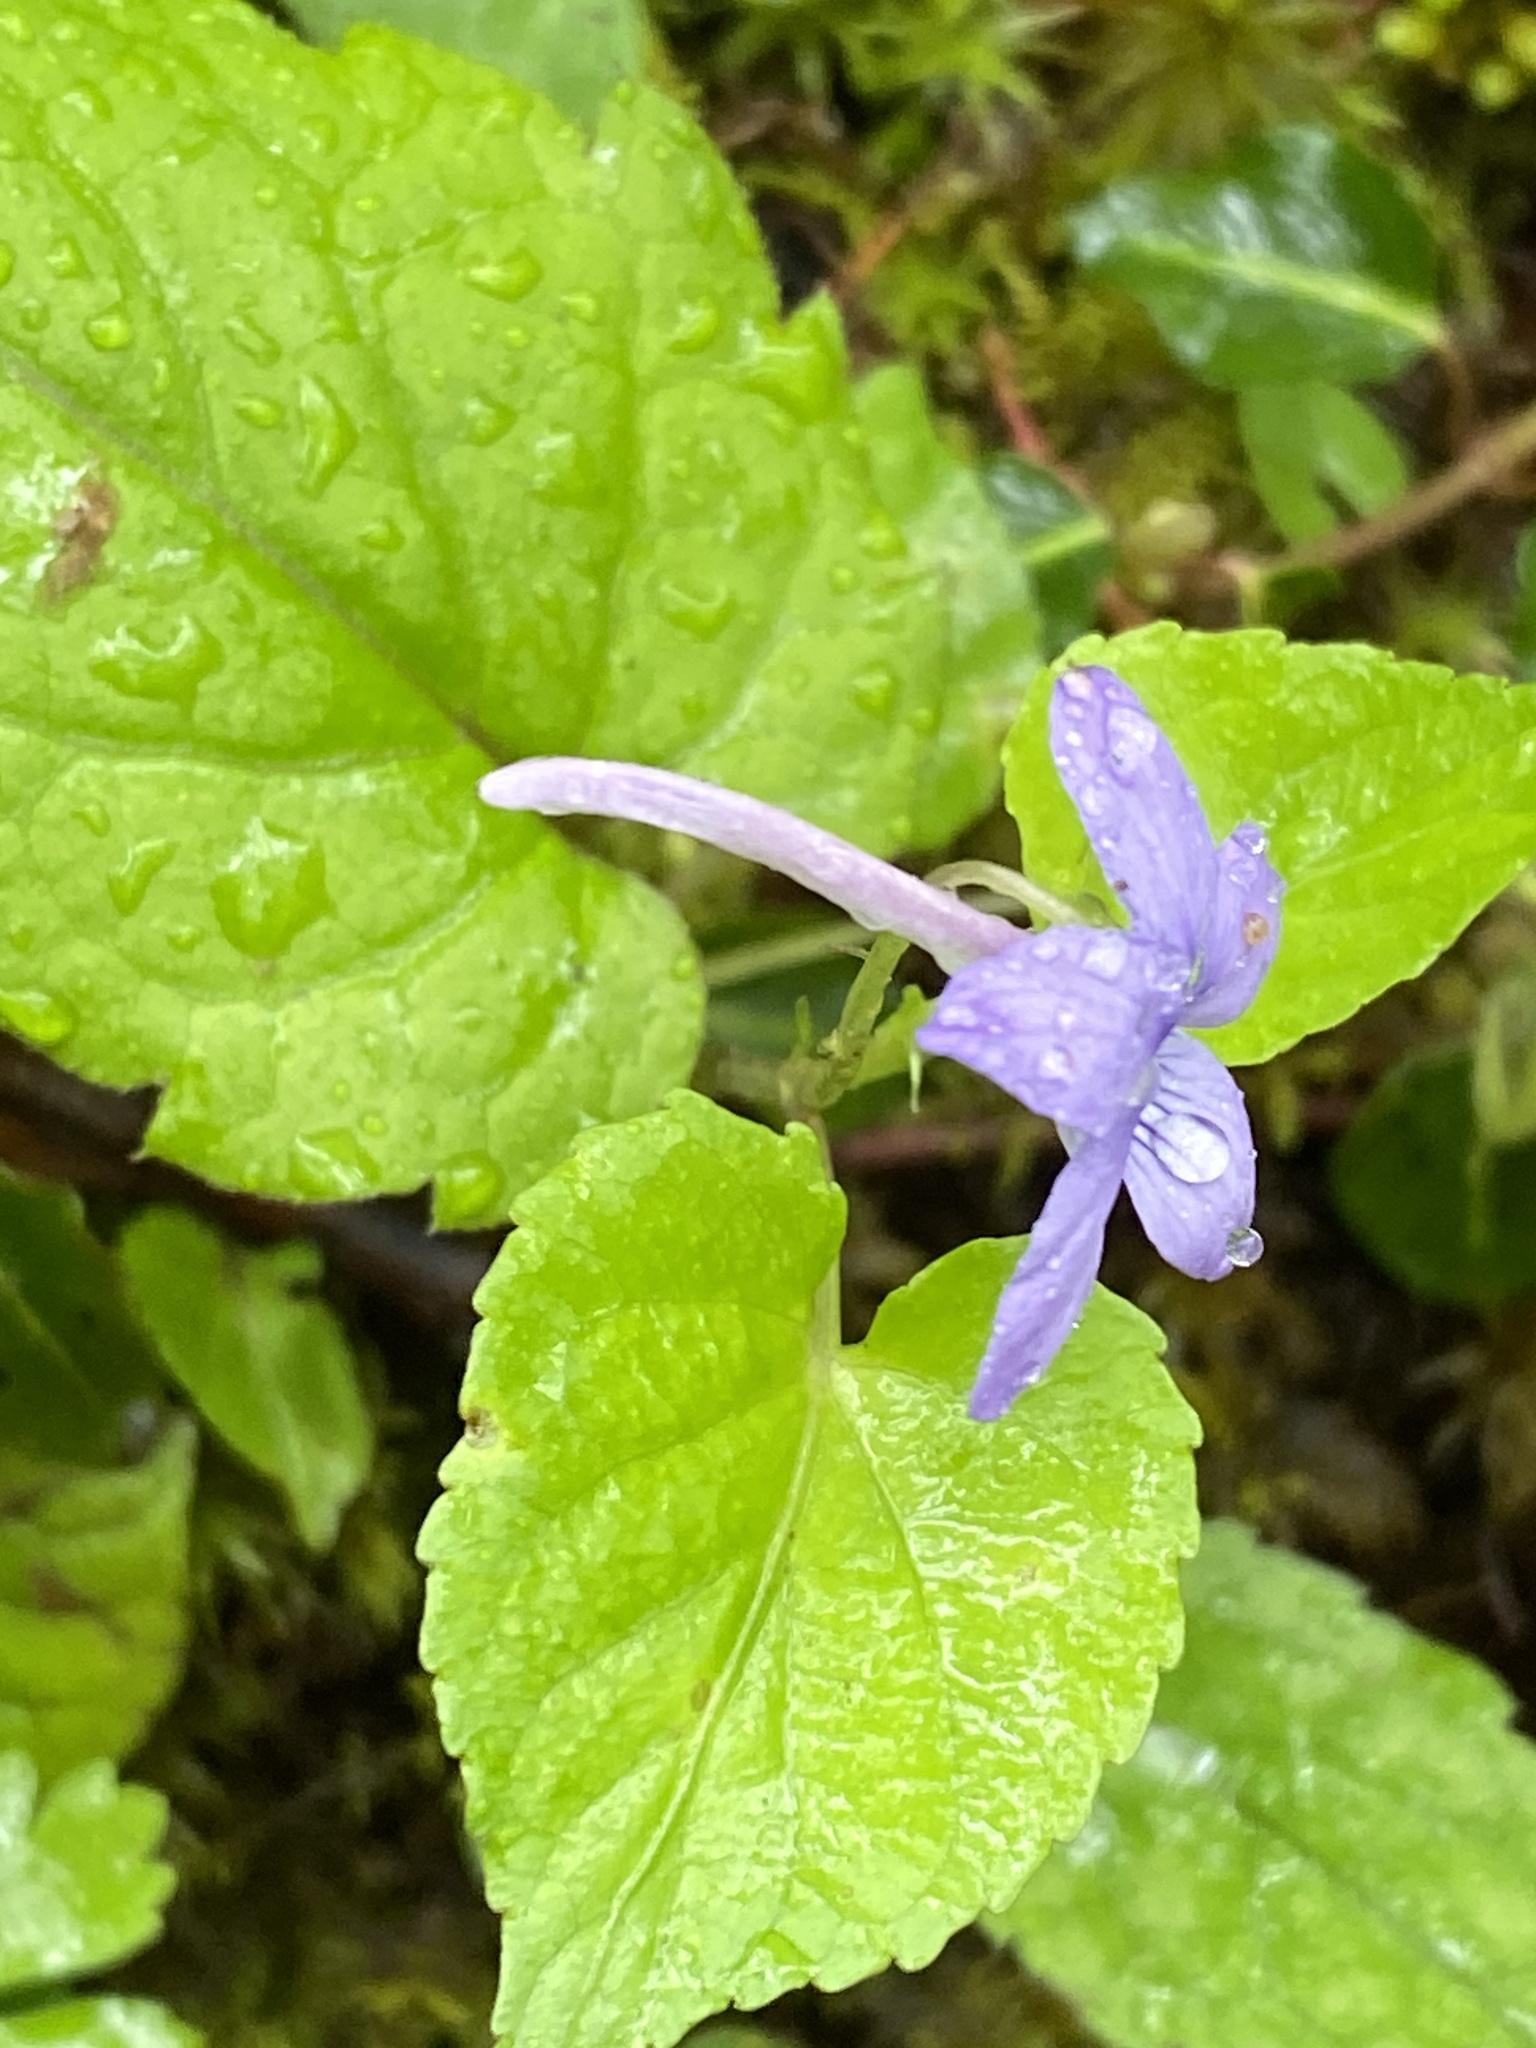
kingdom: Plantae
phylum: Tracheophyta
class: Magnoliopsida
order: Malpighiales
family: Violaceae
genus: Viola
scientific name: Viola rostrata
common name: Long-spur violet
